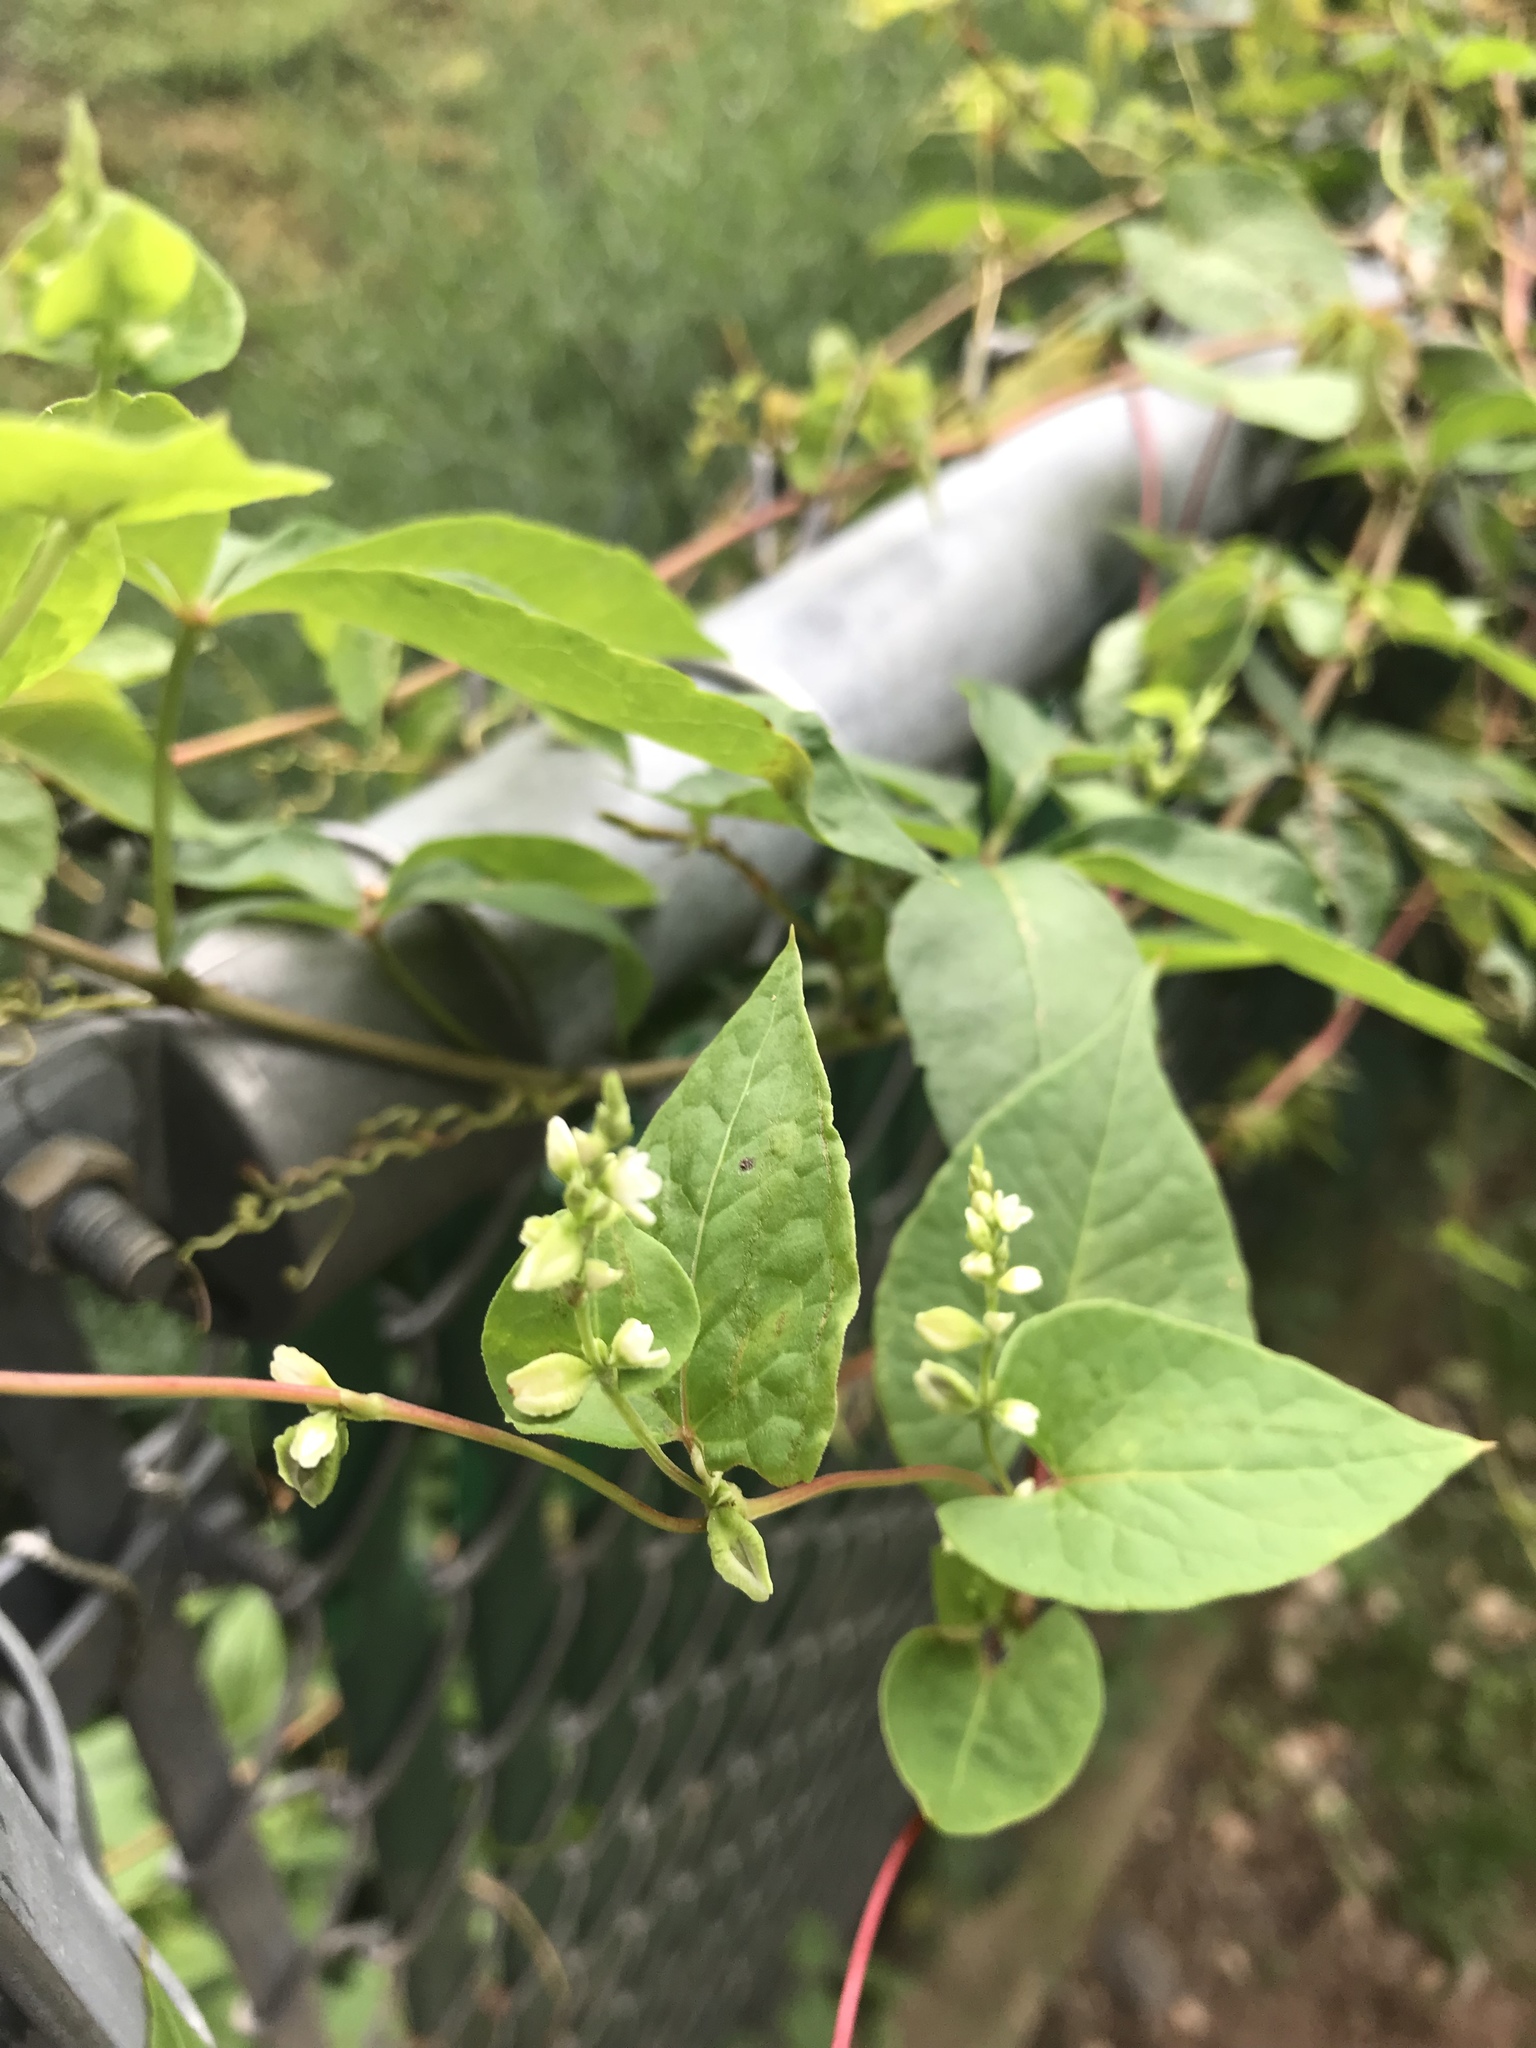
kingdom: Plantae
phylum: Tracheophyta
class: Magnoliopsida
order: Caryophyllales
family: Polygonaceae
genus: Fallopia
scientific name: Fallopia scandens
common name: Climbing false buckwheat
